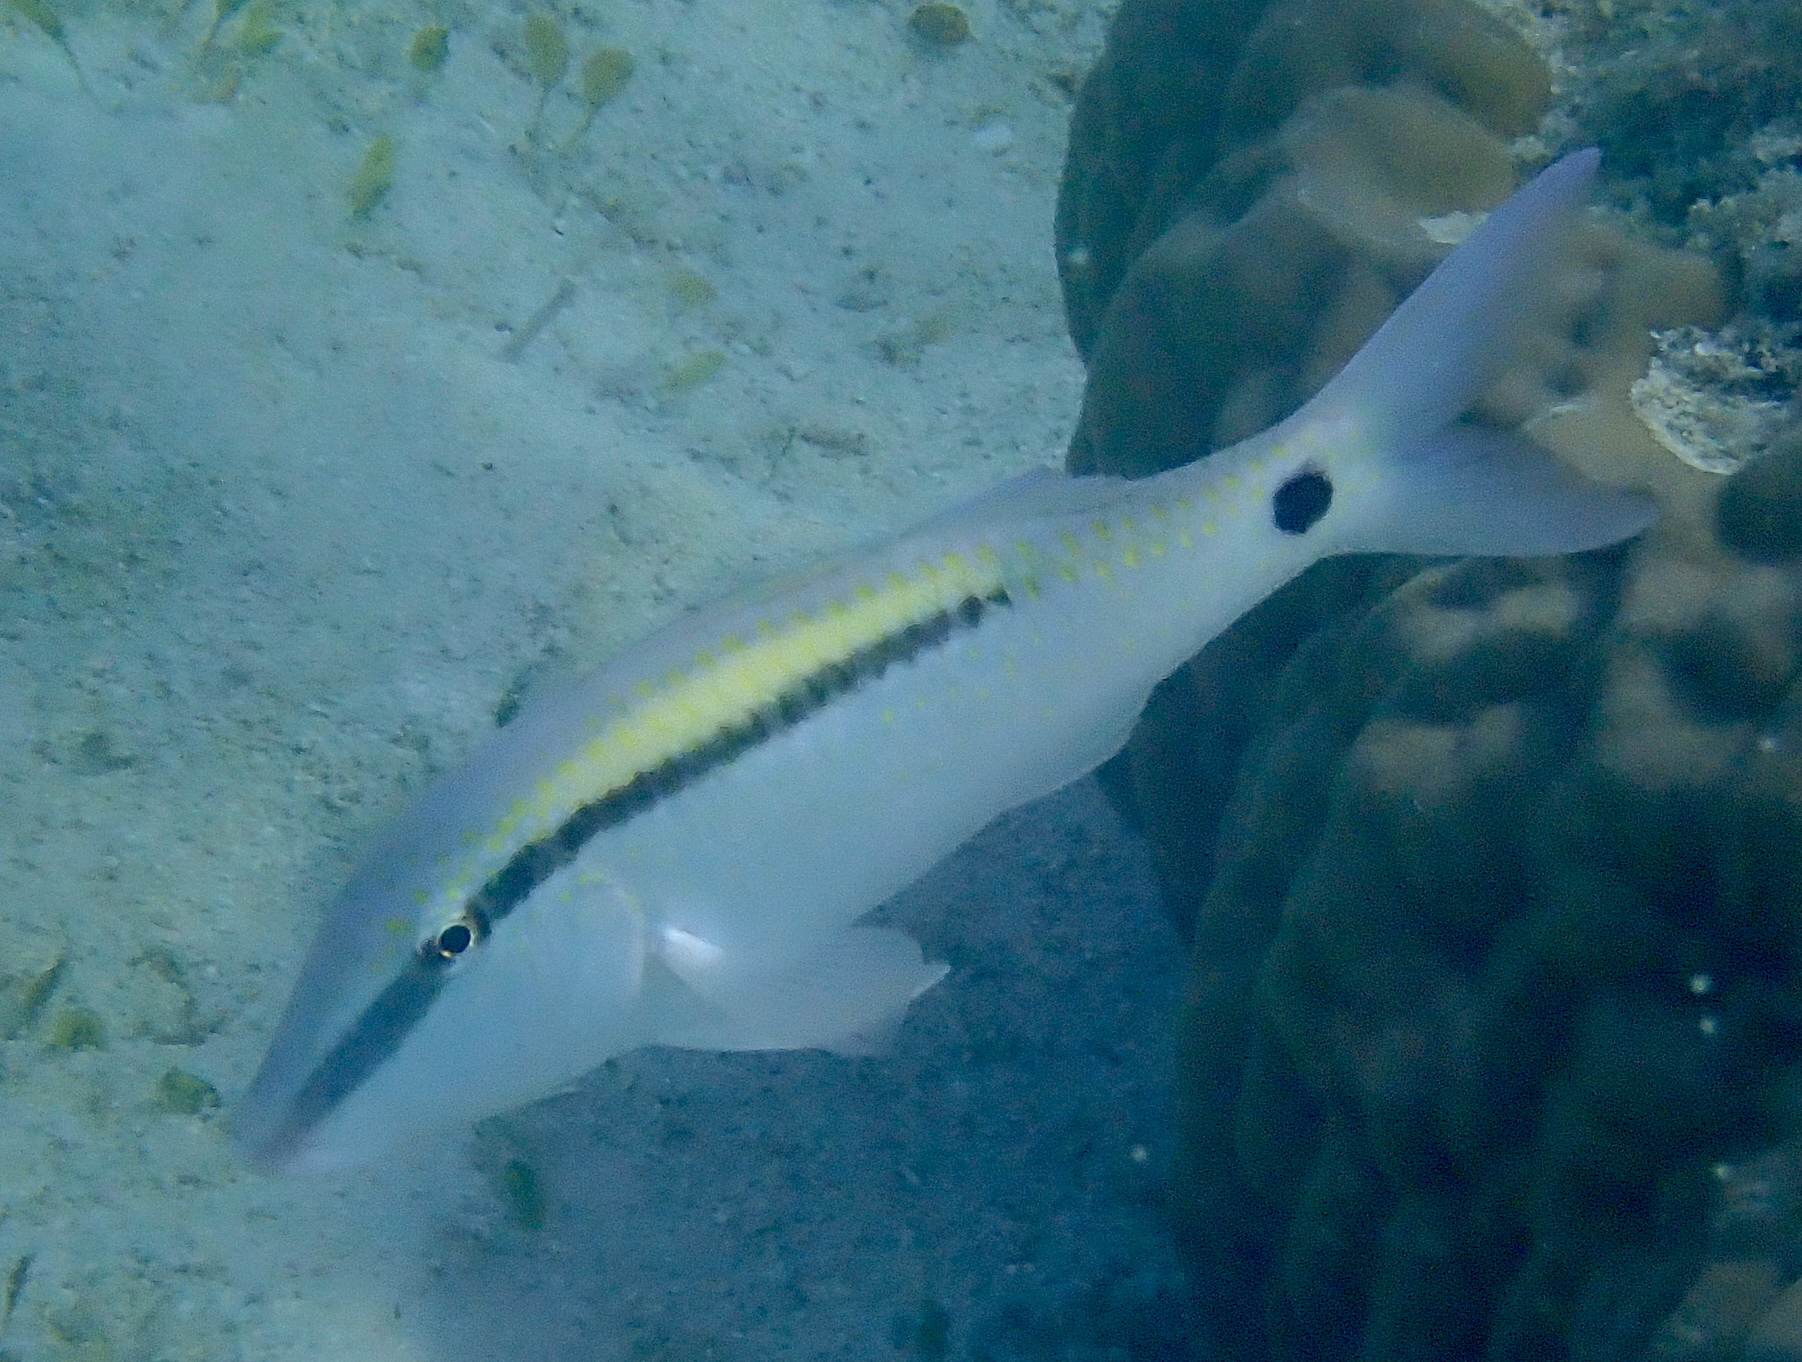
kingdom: Animalia
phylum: Chordata
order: Perciformes
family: Mullidae
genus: Parupeneus
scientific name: Parupeneus barberinus
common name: Dash-and-dot goatfish
